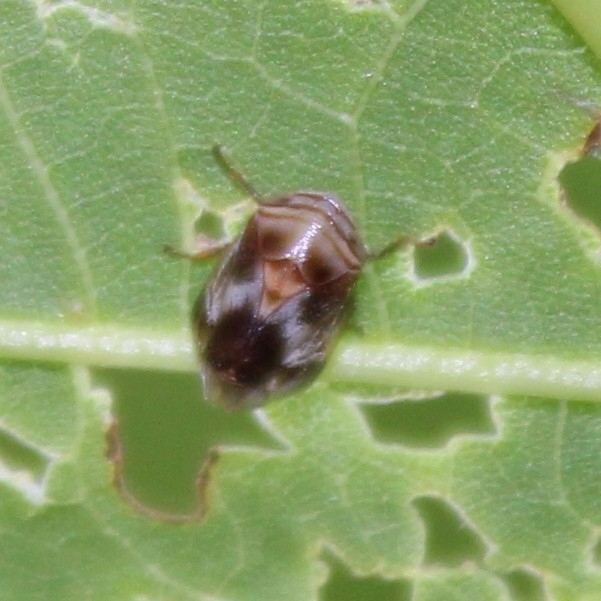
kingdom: Animalia
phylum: Arthropoda
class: Insecta
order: Hemiptera
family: Clastopteridae
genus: Clastoptera
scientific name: Clastoptera obtusa
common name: Alder spittlebug
